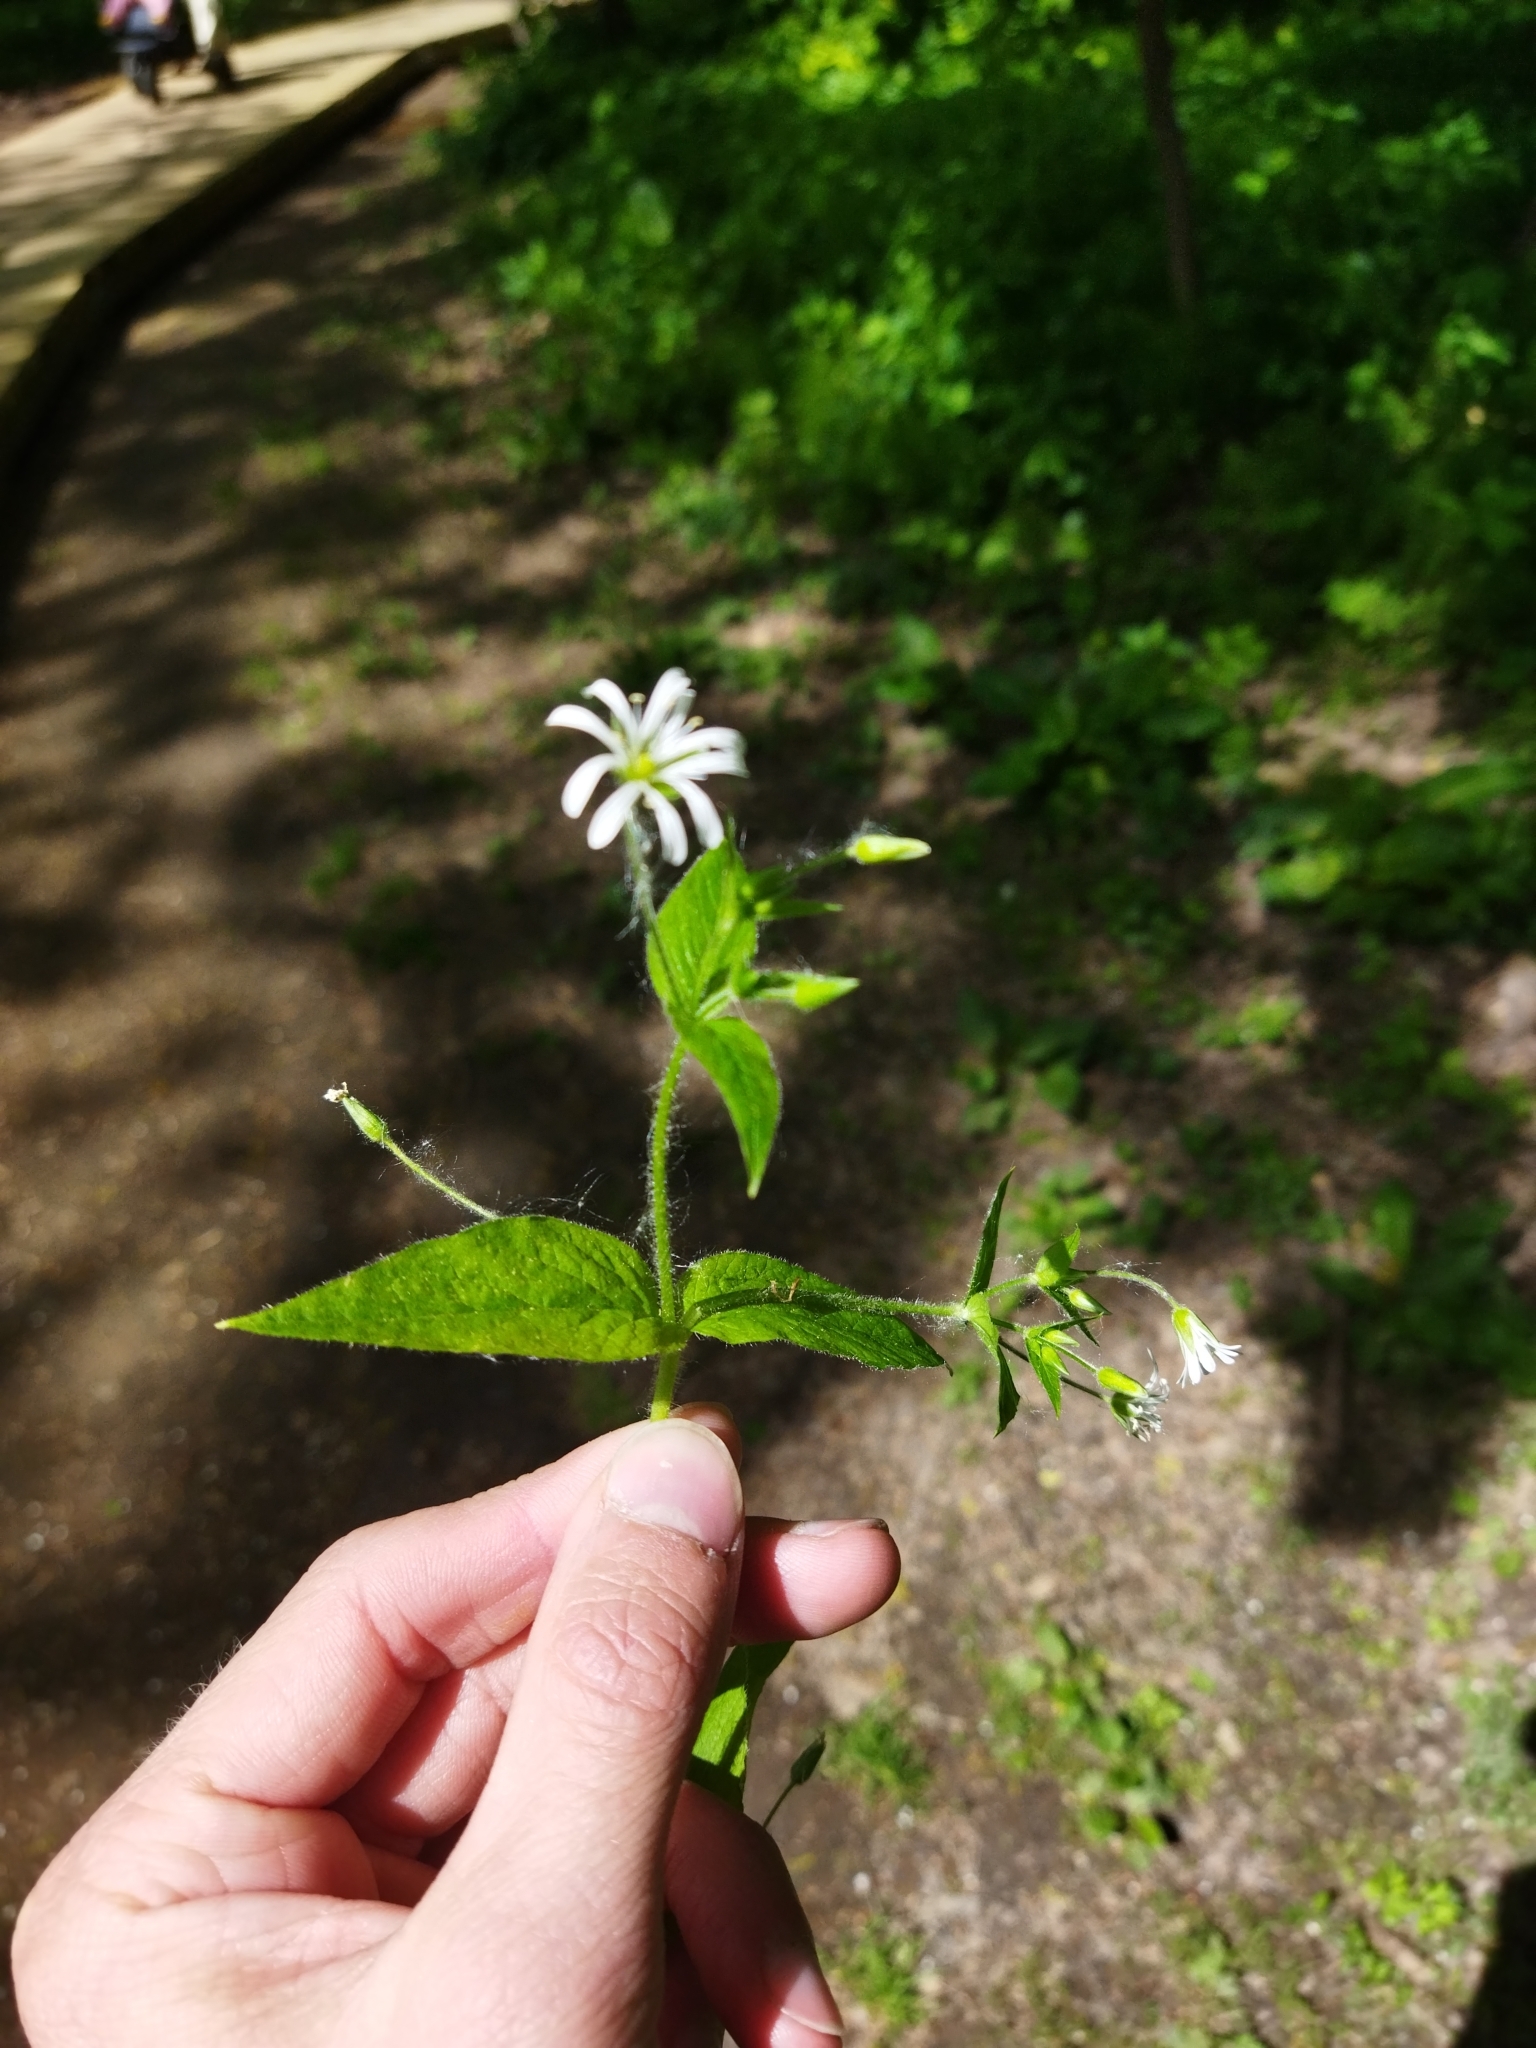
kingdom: Plantae
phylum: Tracheophyta
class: Magnoliopsida
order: Caryophyllales
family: Caryophyllaceae
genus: Stellaria
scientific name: Stellaria nemorum
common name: Wood stitchwort
